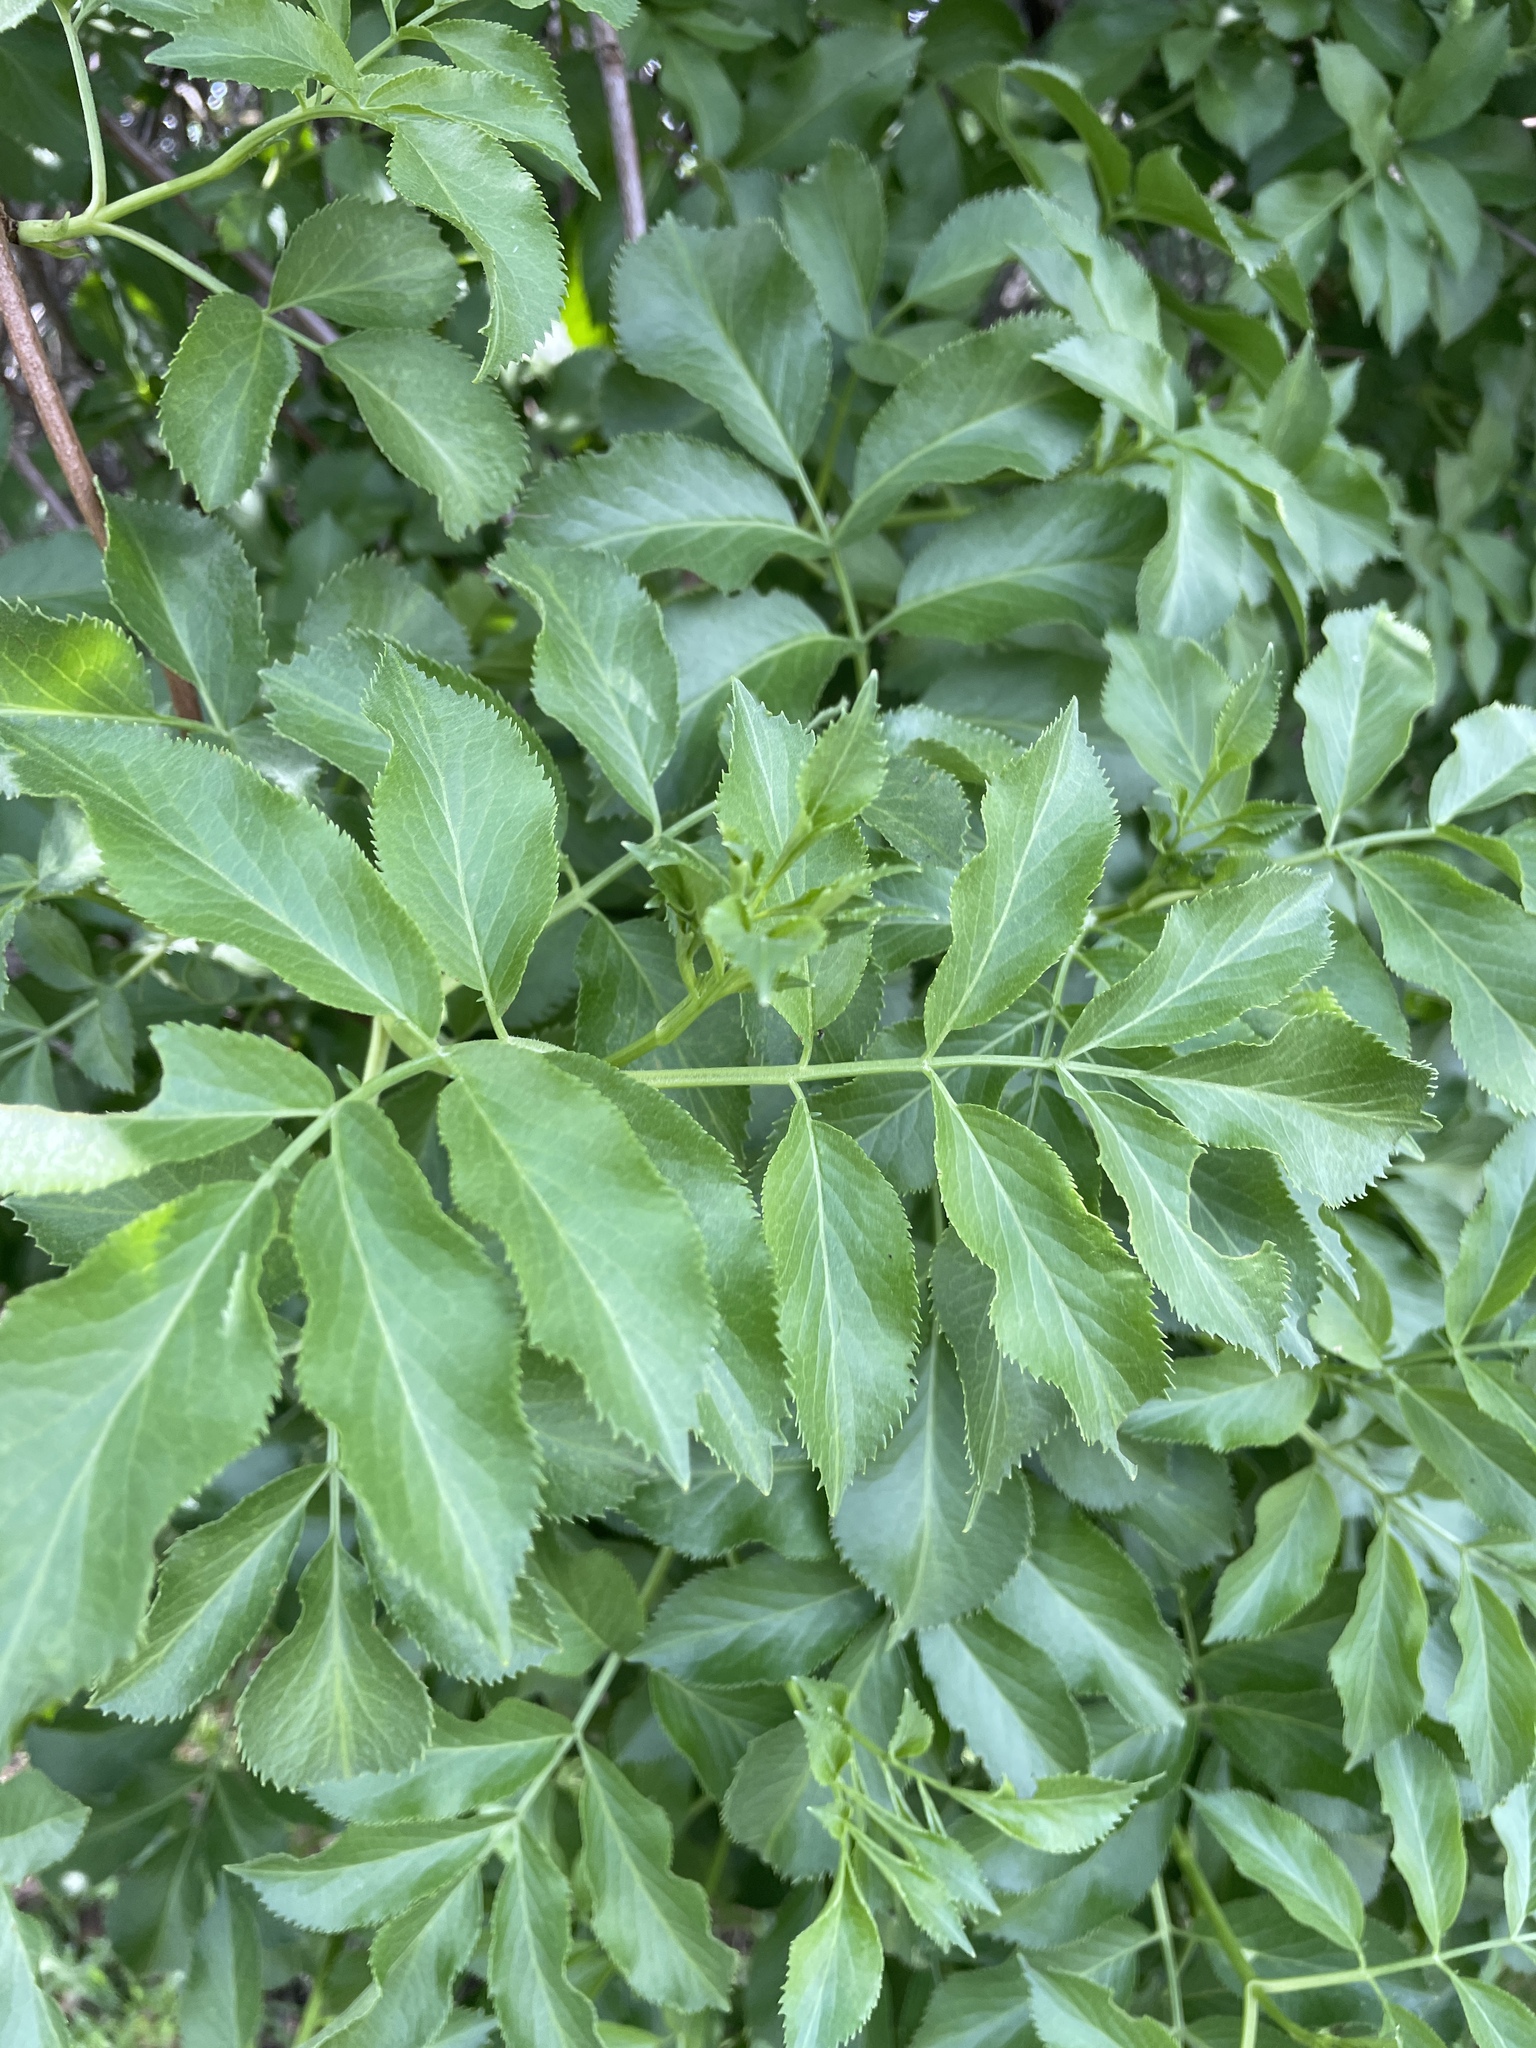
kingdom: Plantae
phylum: Tracheophyta
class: Magnoliopsida
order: Dipsacales
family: Viburnaceae
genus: Sambucus
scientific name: Sambucus cerulea
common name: Blue elder
